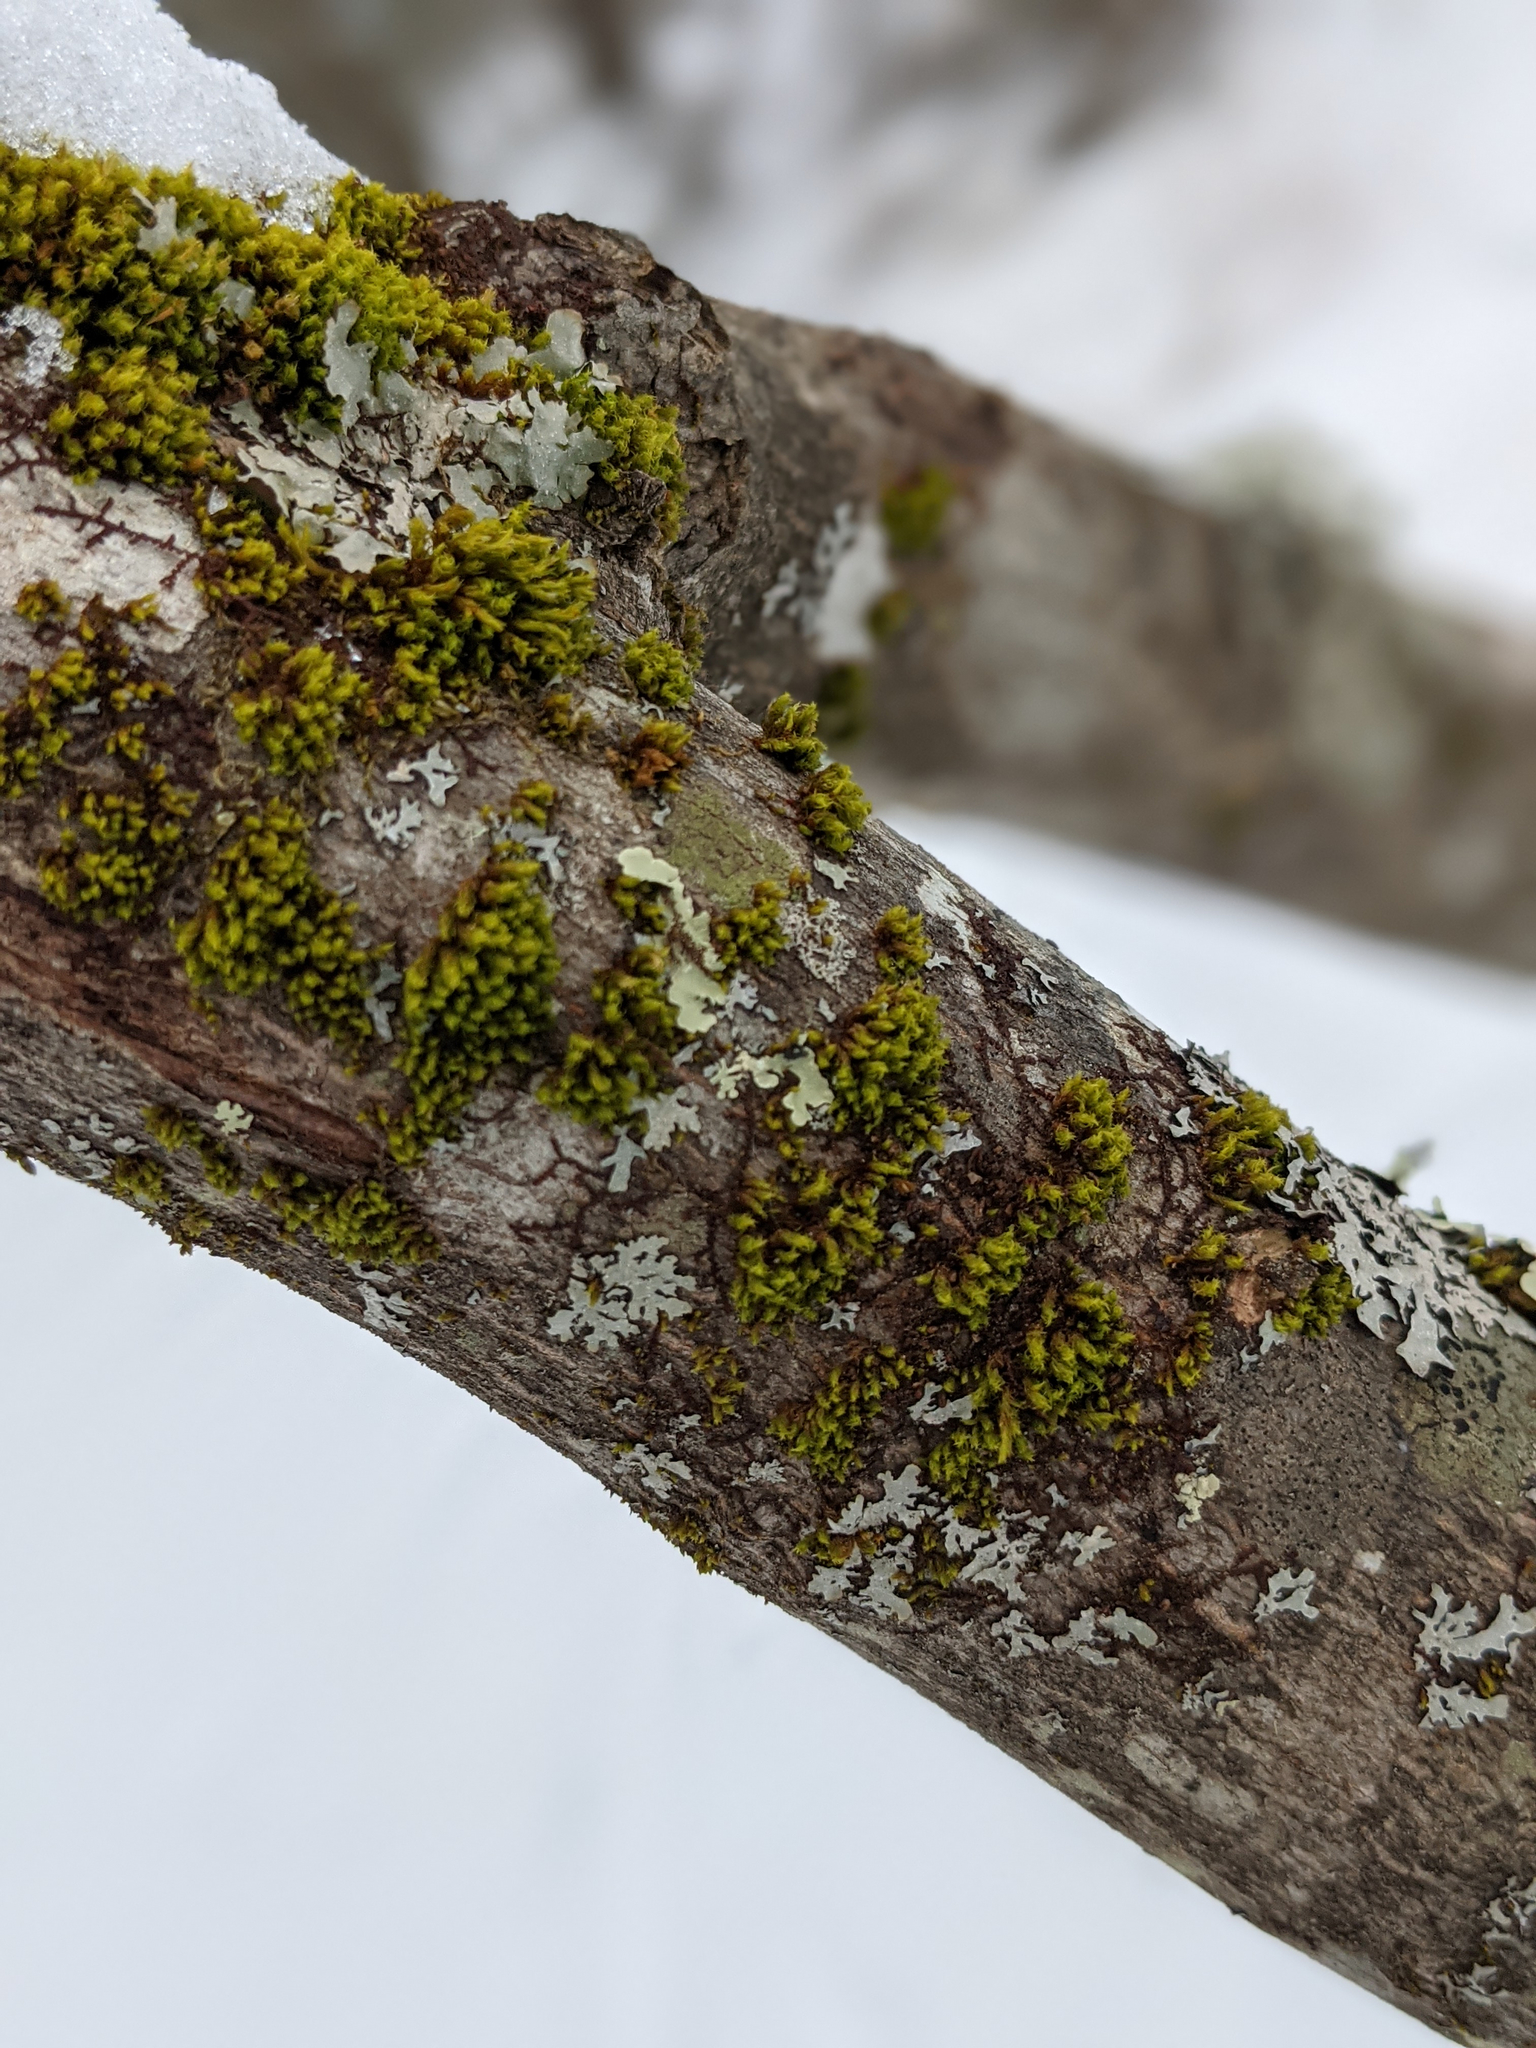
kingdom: Plantae
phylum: Bryophyta
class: Bryopsida
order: Orthotrichales
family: Orthotrichaceae
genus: Ulota
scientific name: Ulota crispa
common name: Crisped pincushion moss
